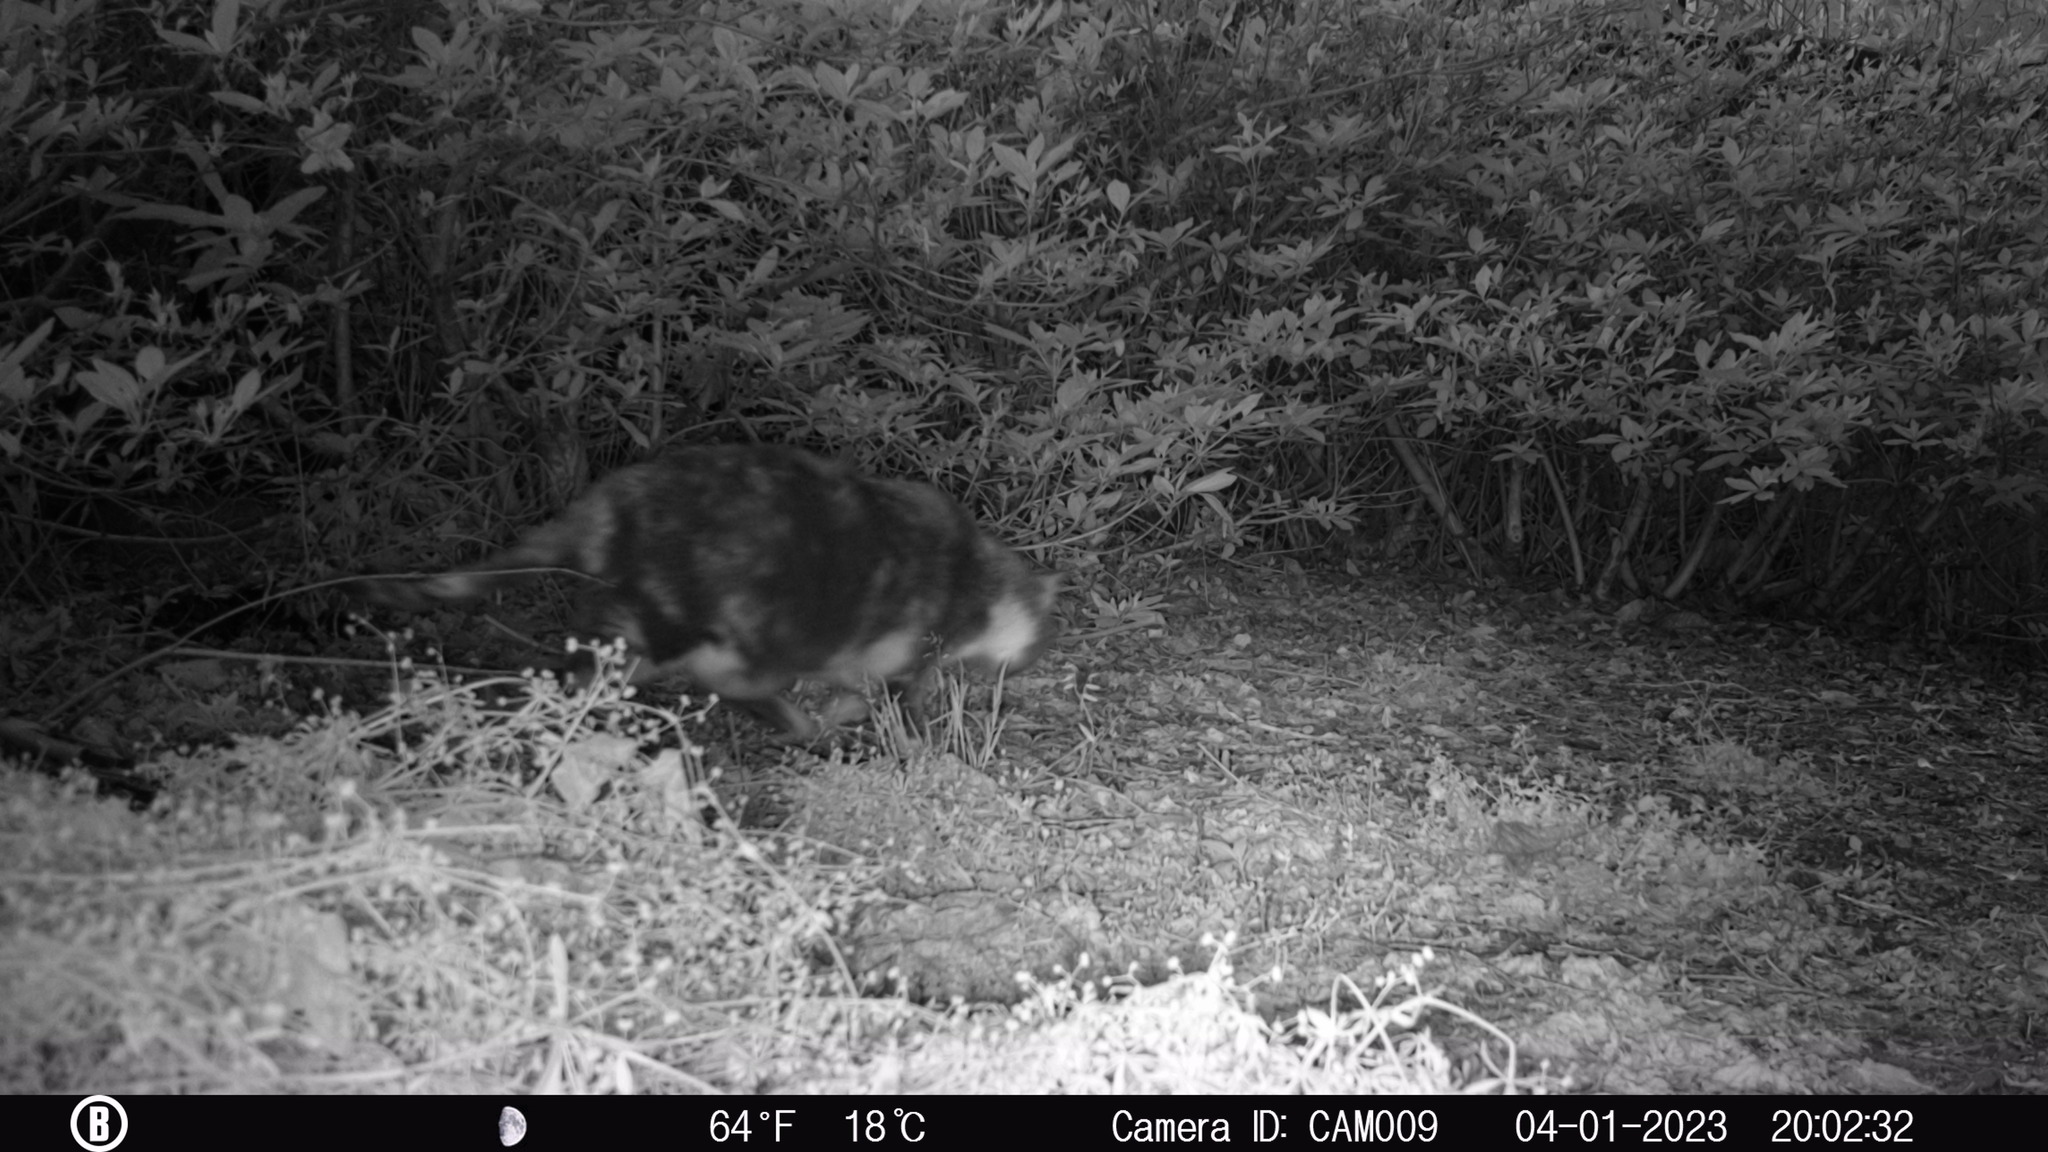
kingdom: Animalia
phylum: Chordata
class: Mammalia
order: Carnivora
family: Felidae
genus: Felis
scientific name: Felis catus
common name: Domestic cat
